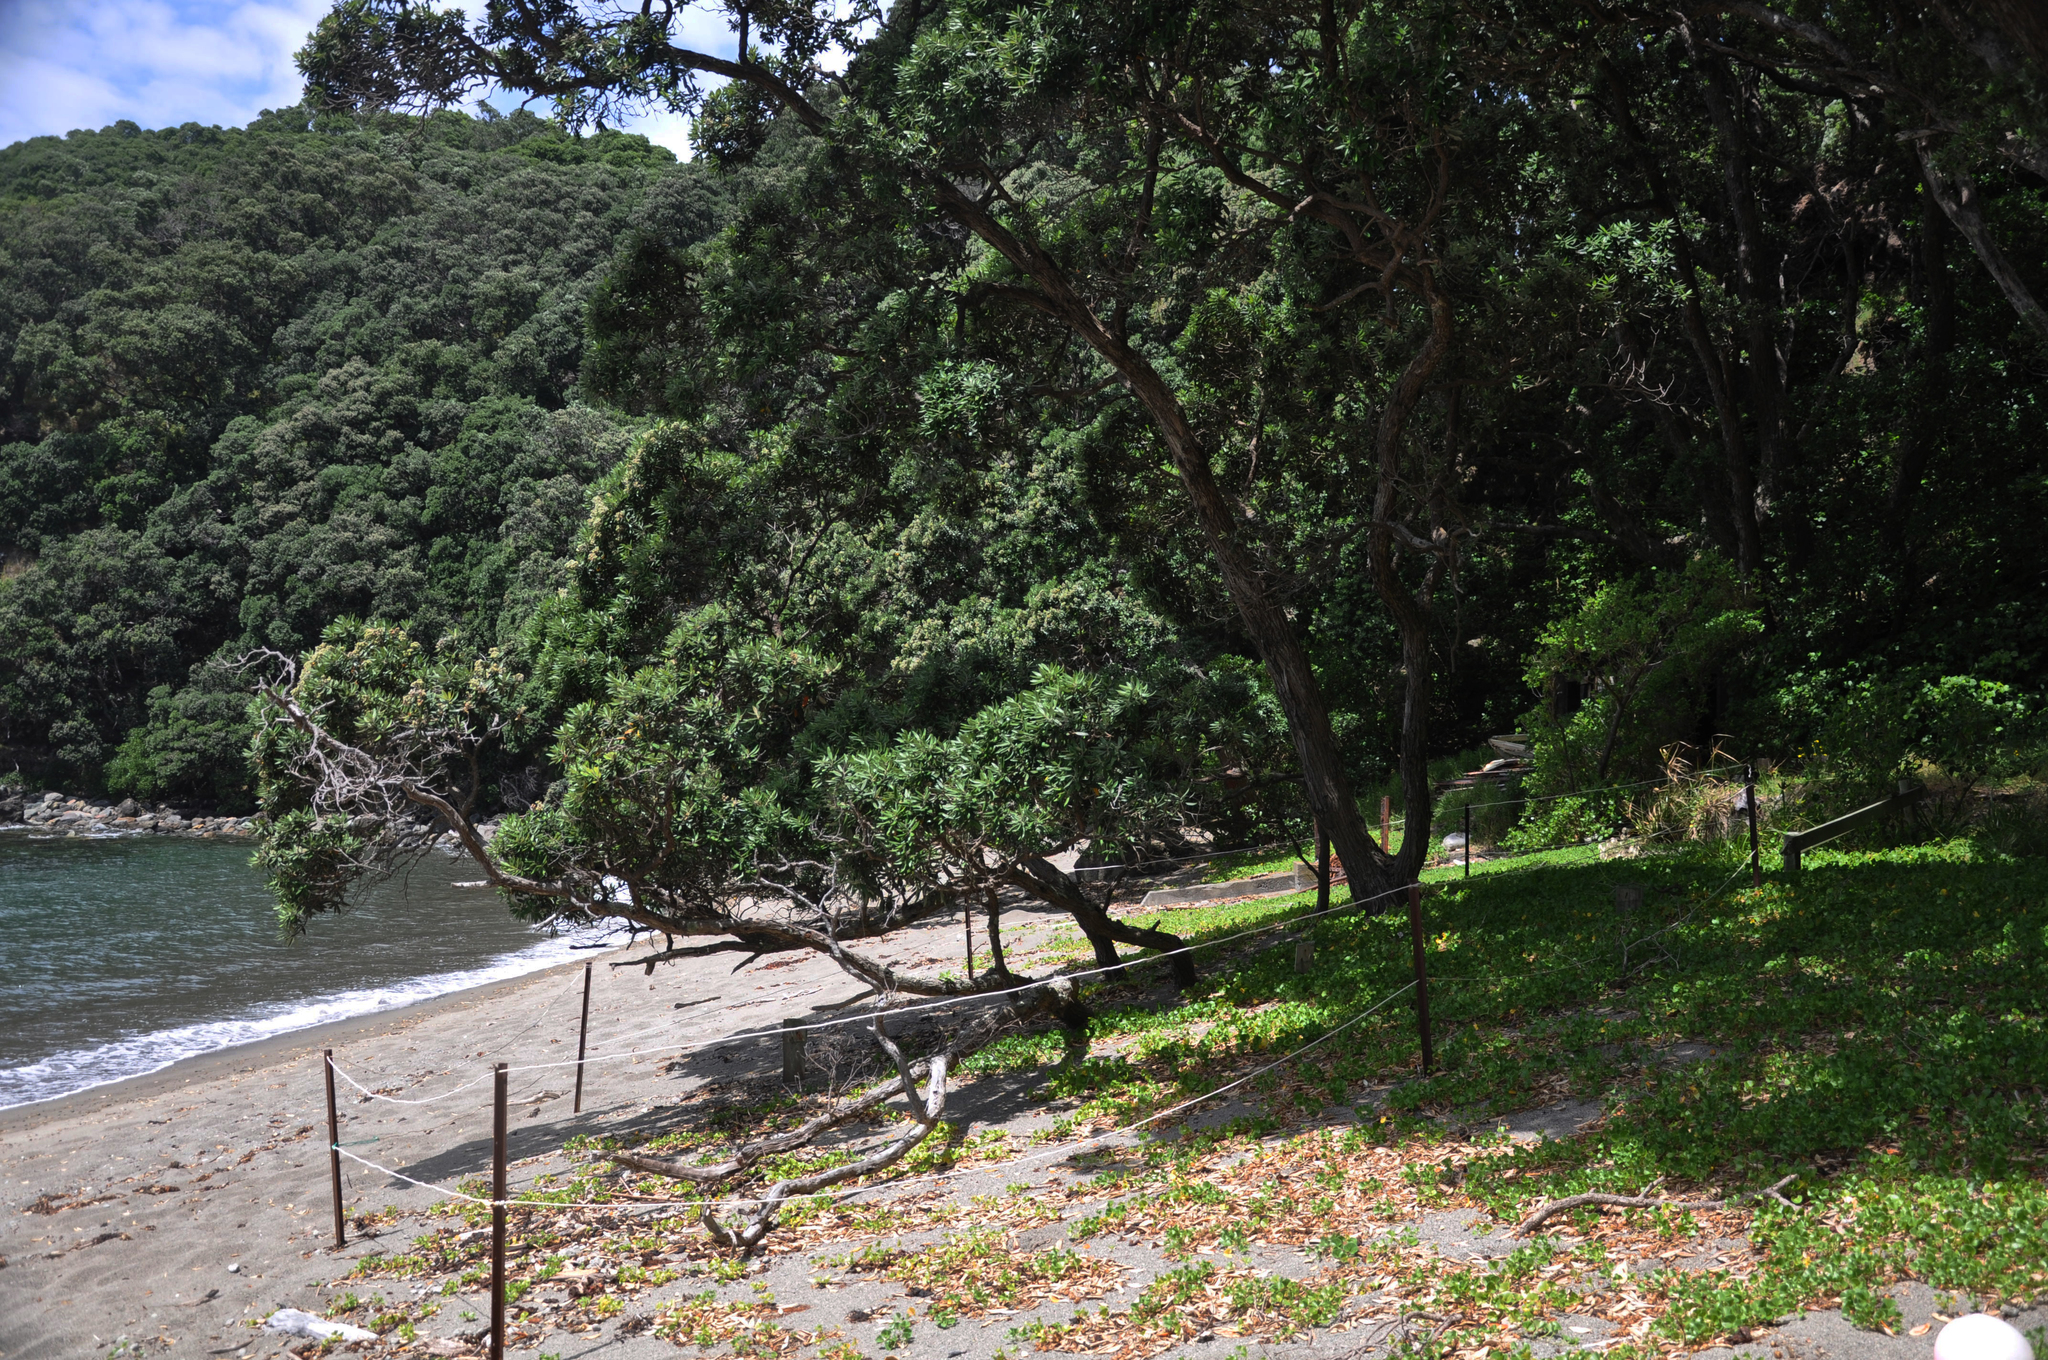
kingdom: Plantae
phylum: Tracheophyta
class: Magnoliopsida
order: Myrtales
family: Myrtaceae
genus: Metrosideros
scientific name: Metrosideros excelsa
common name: New zealand christmastree
